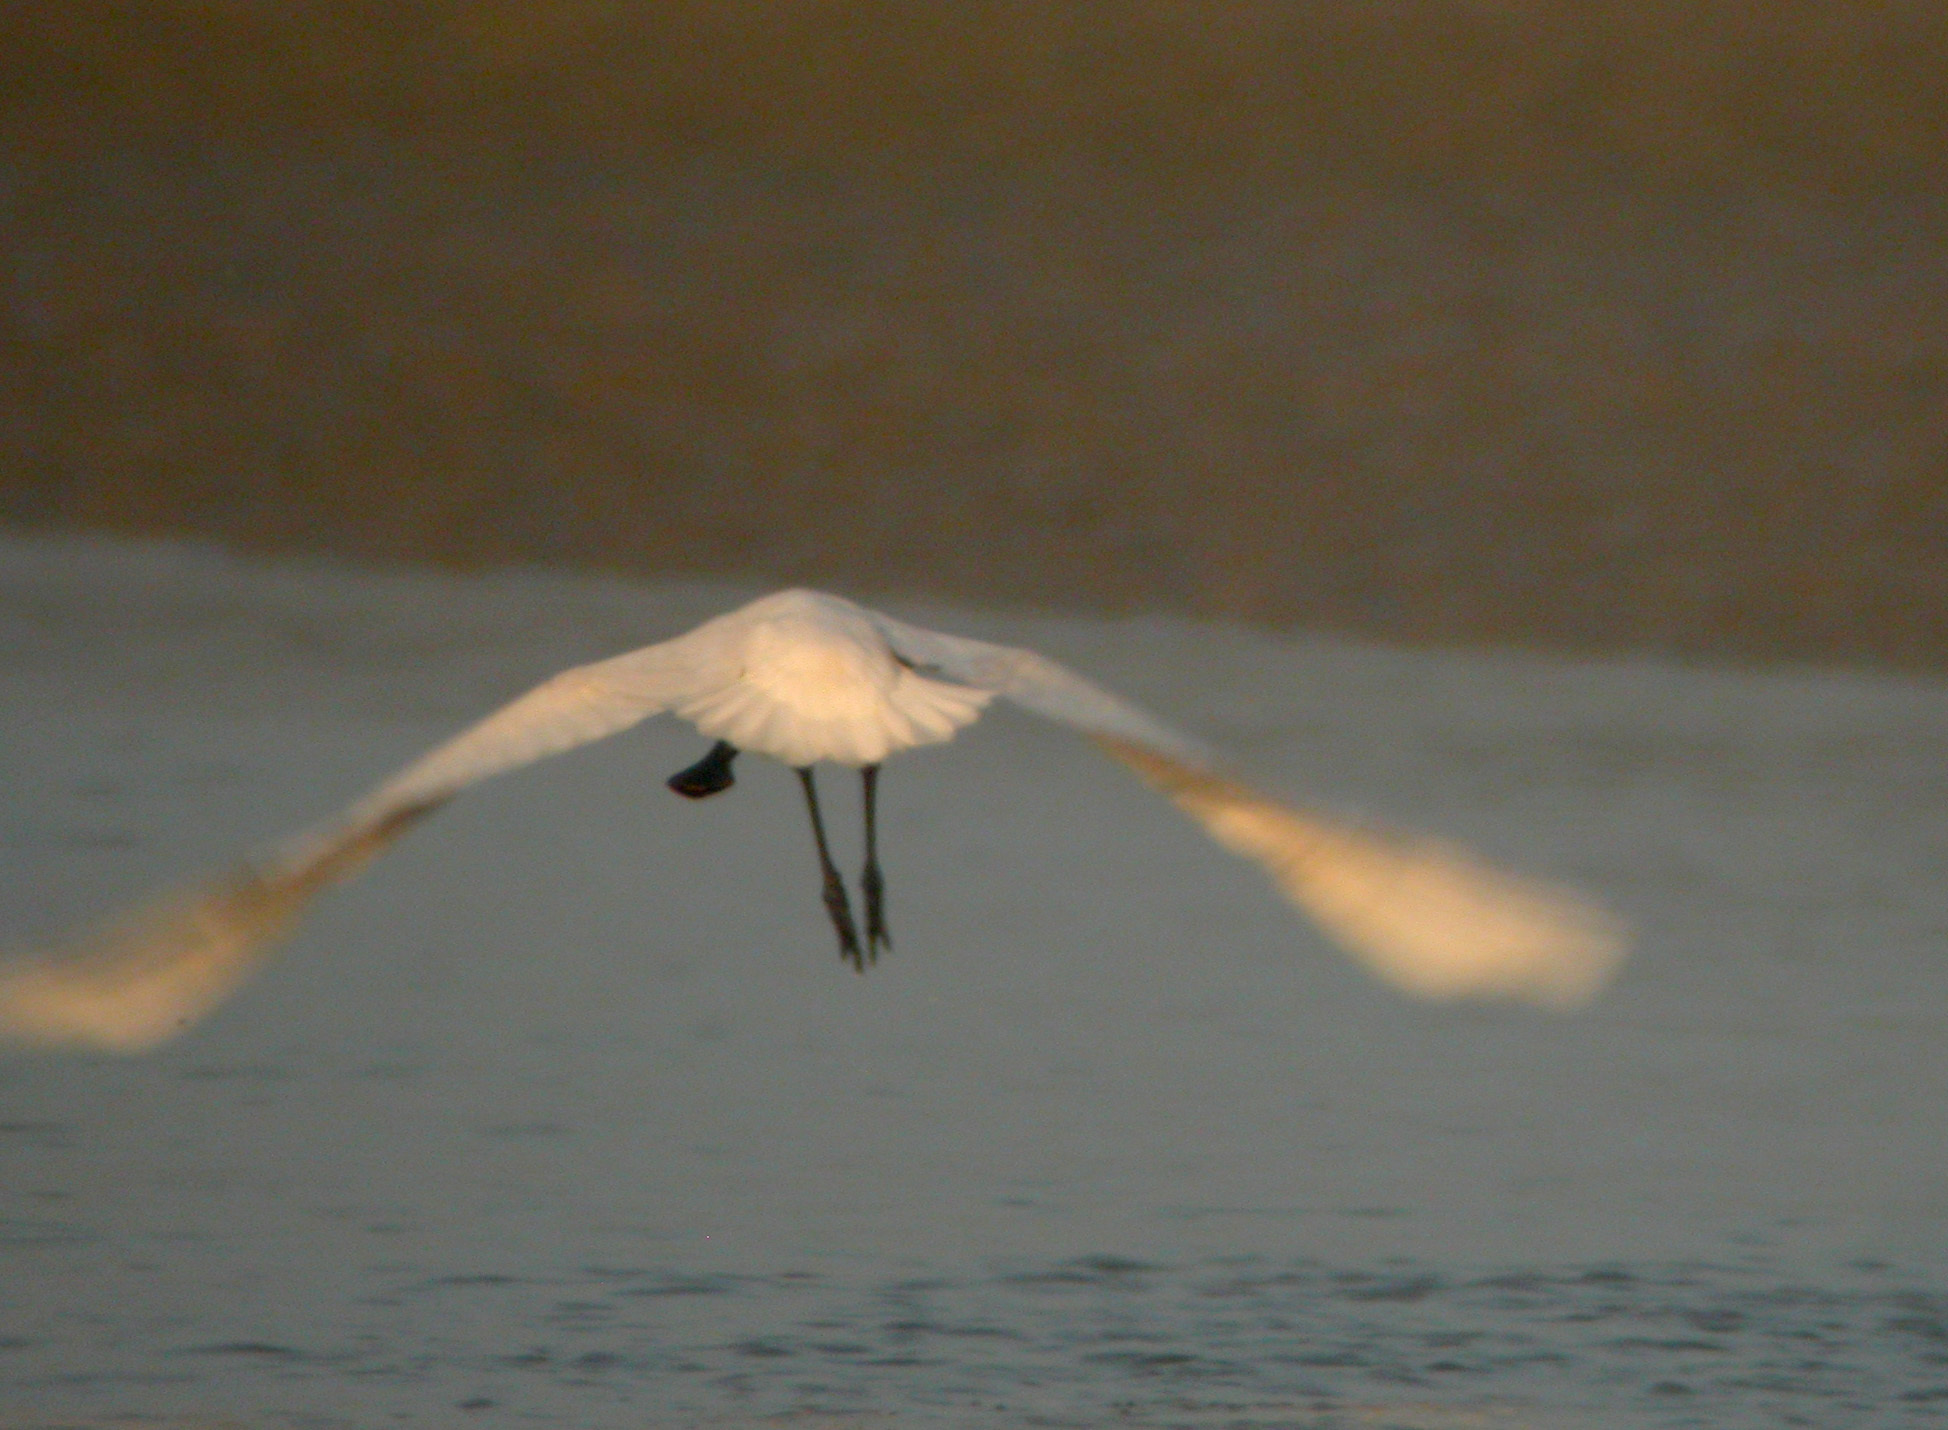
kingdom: Animalia
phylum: Chordata
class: Aves
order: Pelecaniformes
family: Threskiornithidae
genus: Platalea
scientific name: Platalea leucorodia
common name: Eurasian spoonbill
